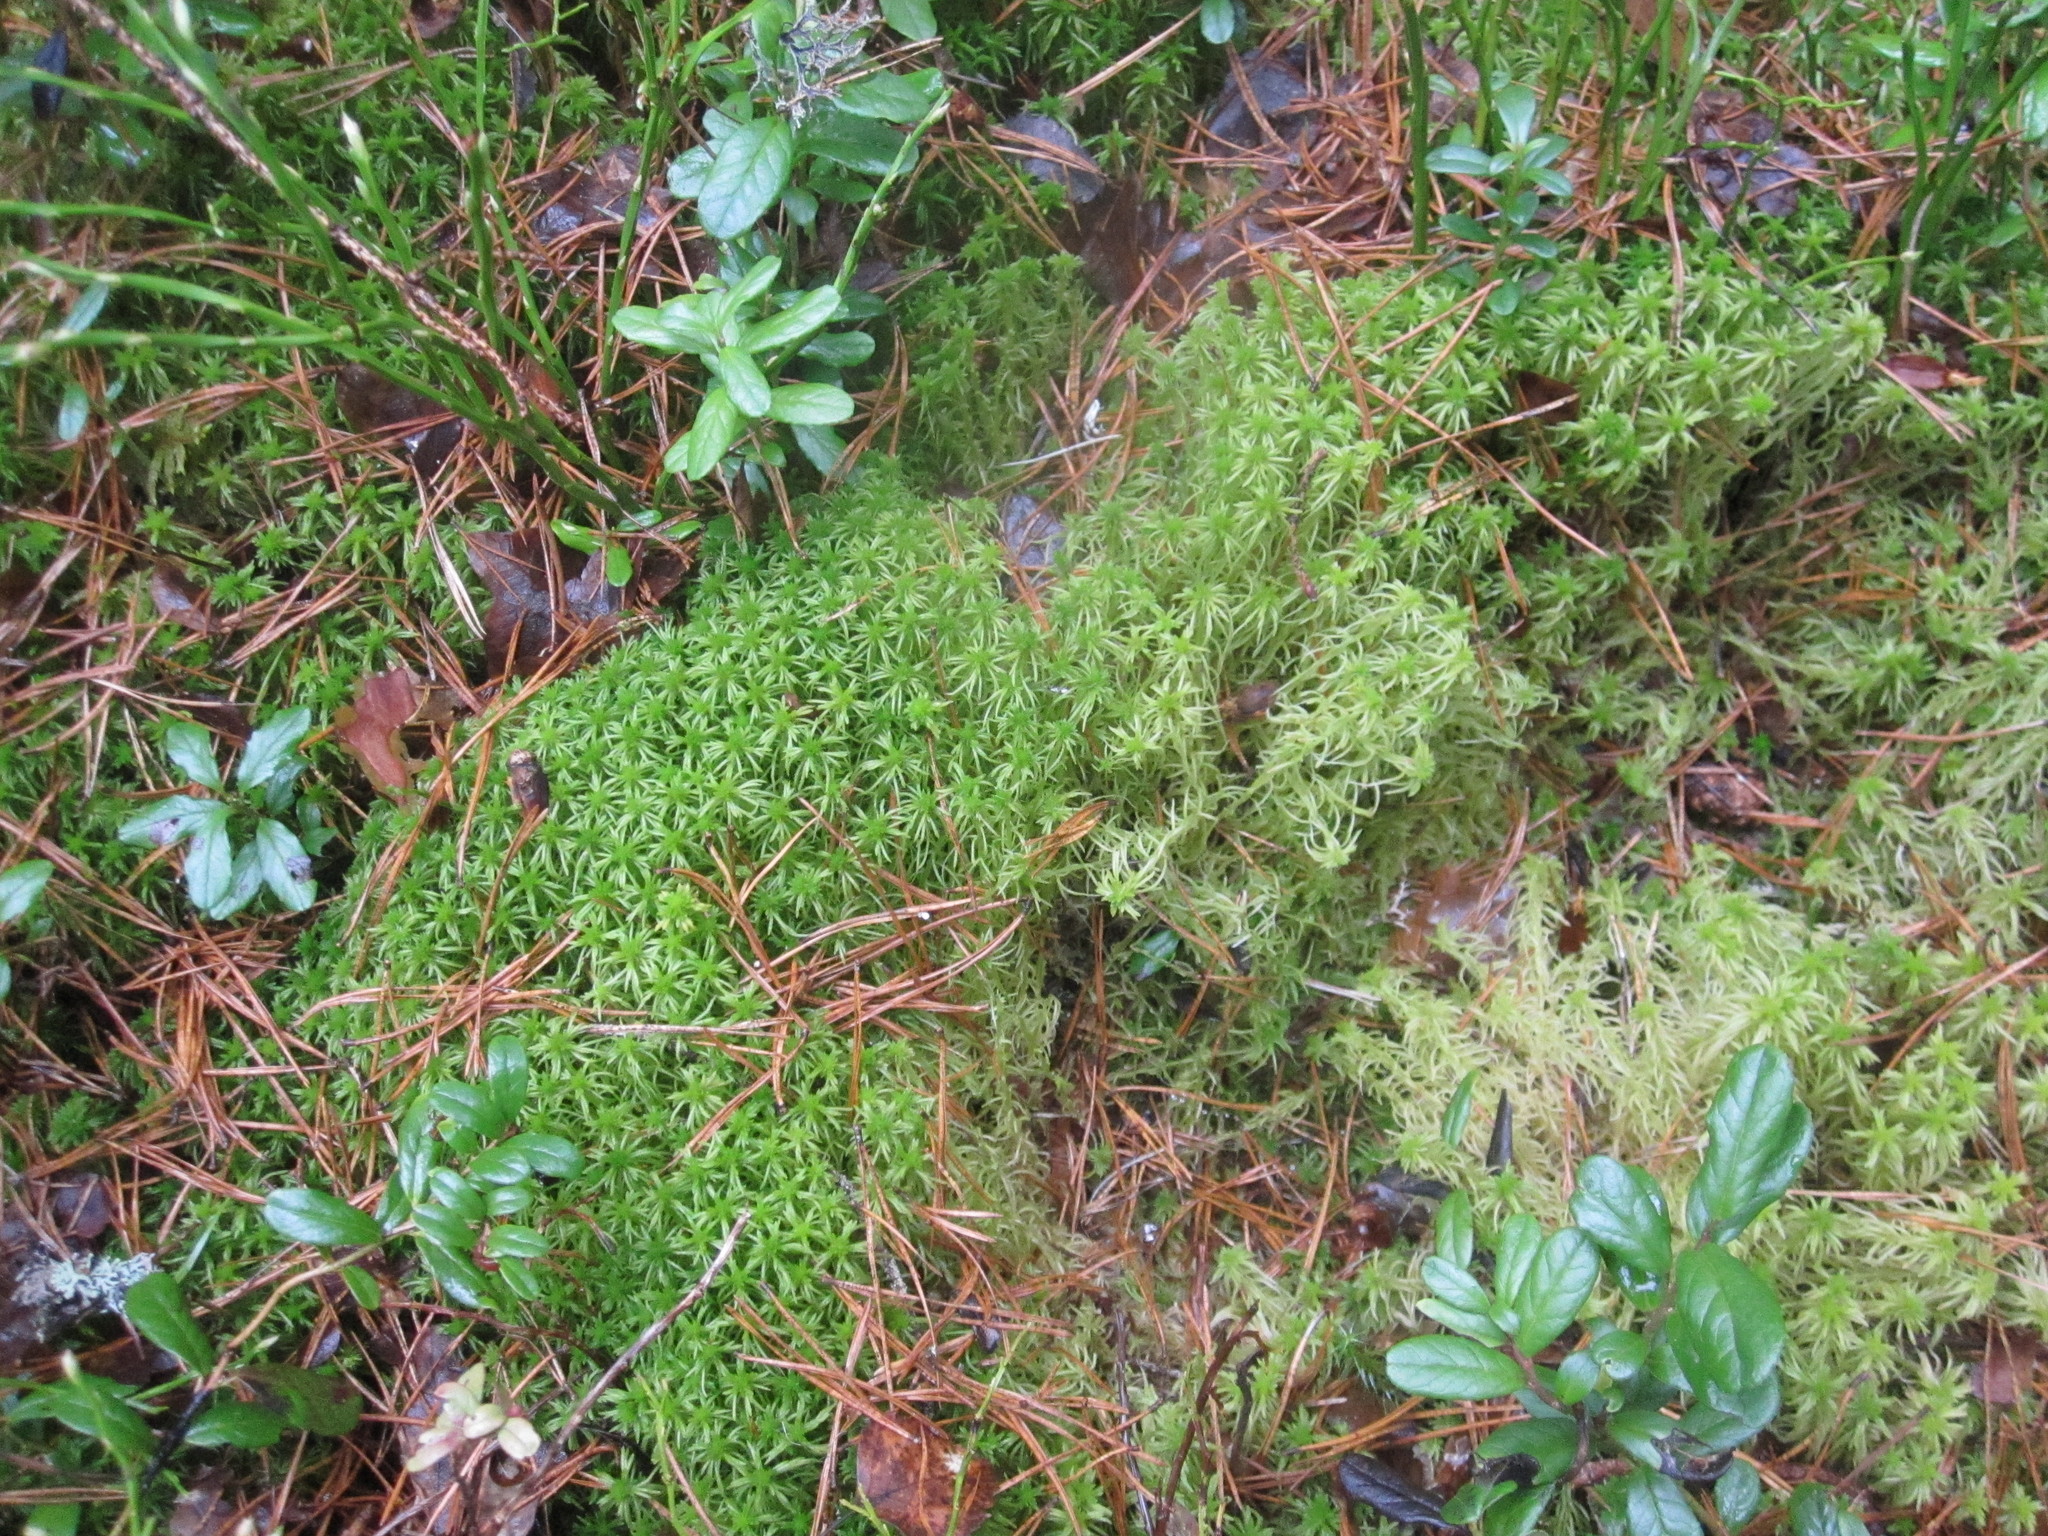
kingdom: Plantae
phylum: Bryophyta
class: Sphagnopsida
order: Sphagnales
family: Sphagnaceae
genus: Sphagnum
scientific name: Sphagnum girgensohnii
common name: Girgensohn's peat moss
